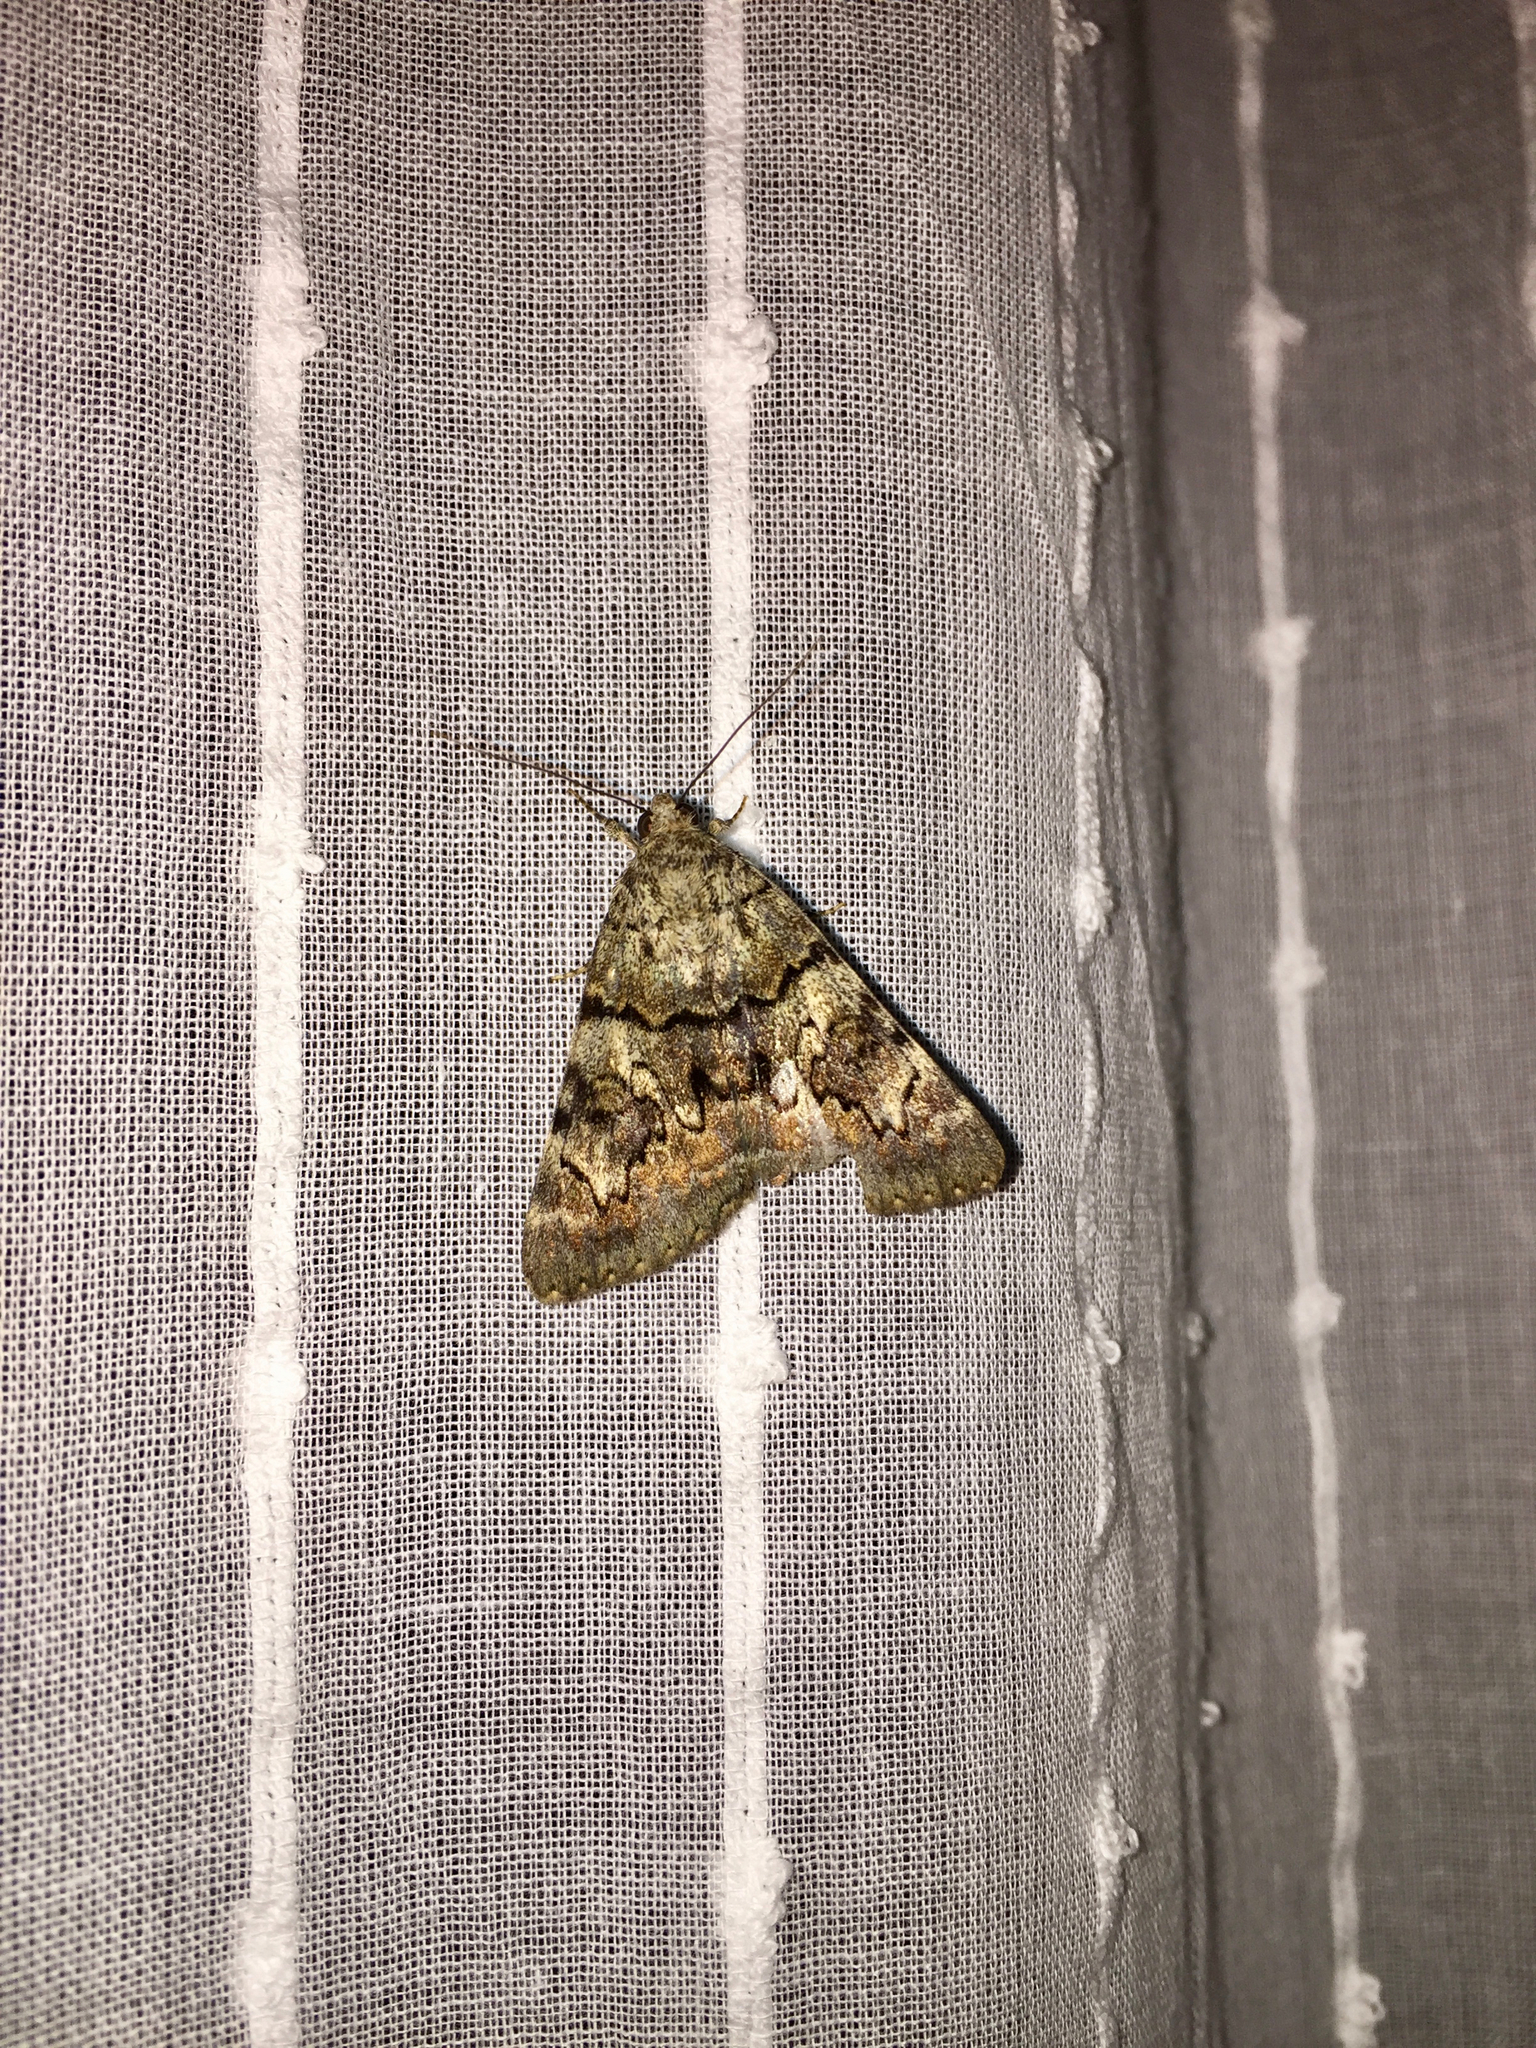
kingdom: Animalia
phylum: Arthropoda
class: Insecta
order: Lepidoptera
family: Erebidae
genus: Catocala
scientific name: Catocala nymphagoga
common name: Oak yellow underwing
